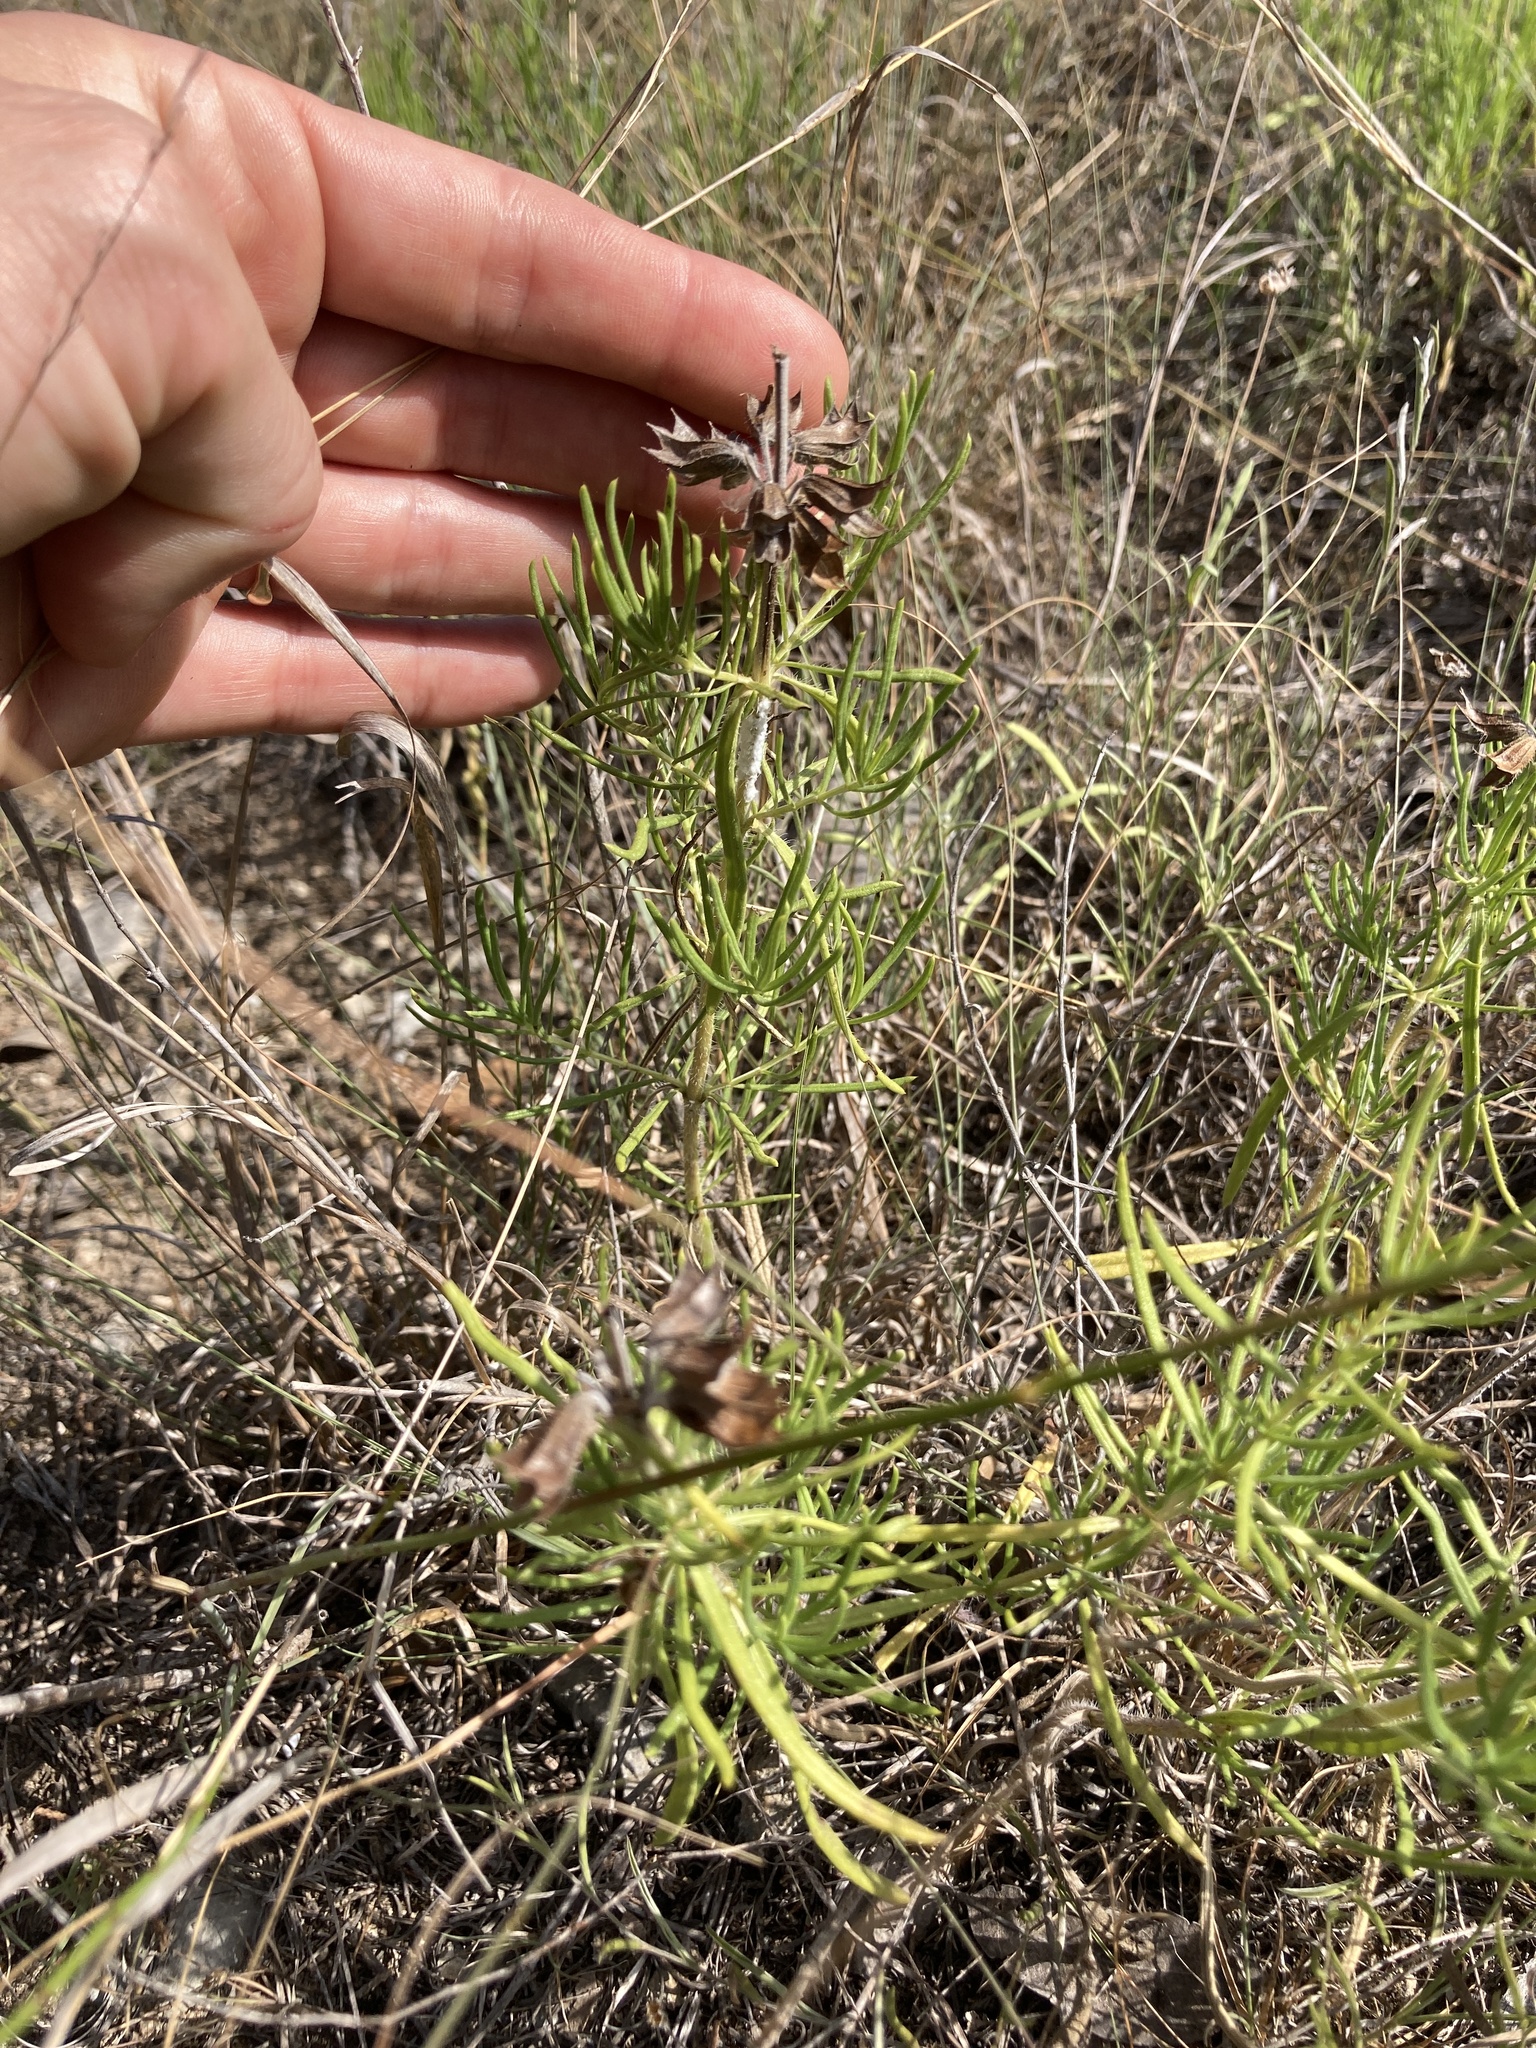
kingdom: Plantae
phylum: Tracheophyta
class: Magnoliopsida
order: Lamiales
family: Lamiaceae
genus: Salvia
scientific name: Salvia engelmannii
